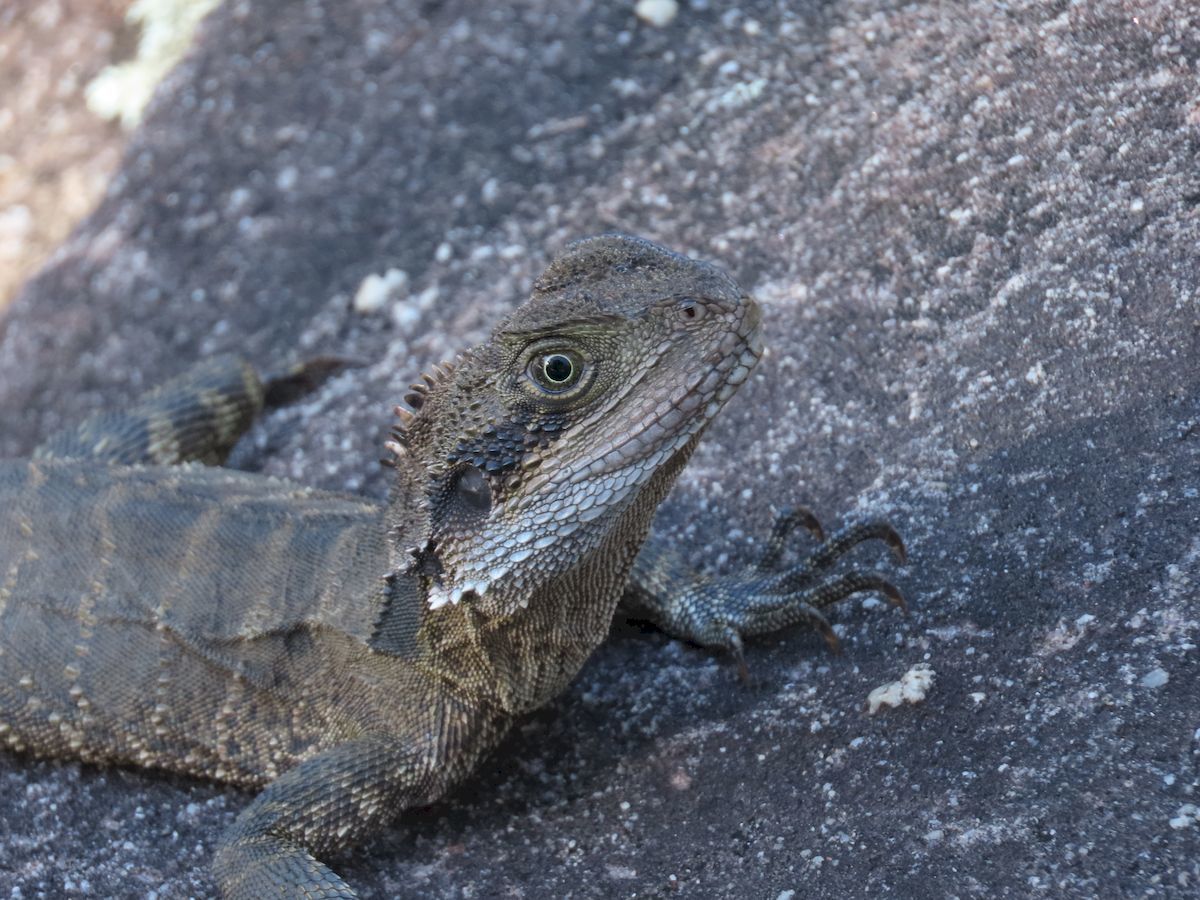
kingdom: Animalia
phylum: Chordata
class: Squamata
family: Agamidae
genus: Intellagama
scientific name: Intellagama lesueurii
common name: Eastern water dragon
